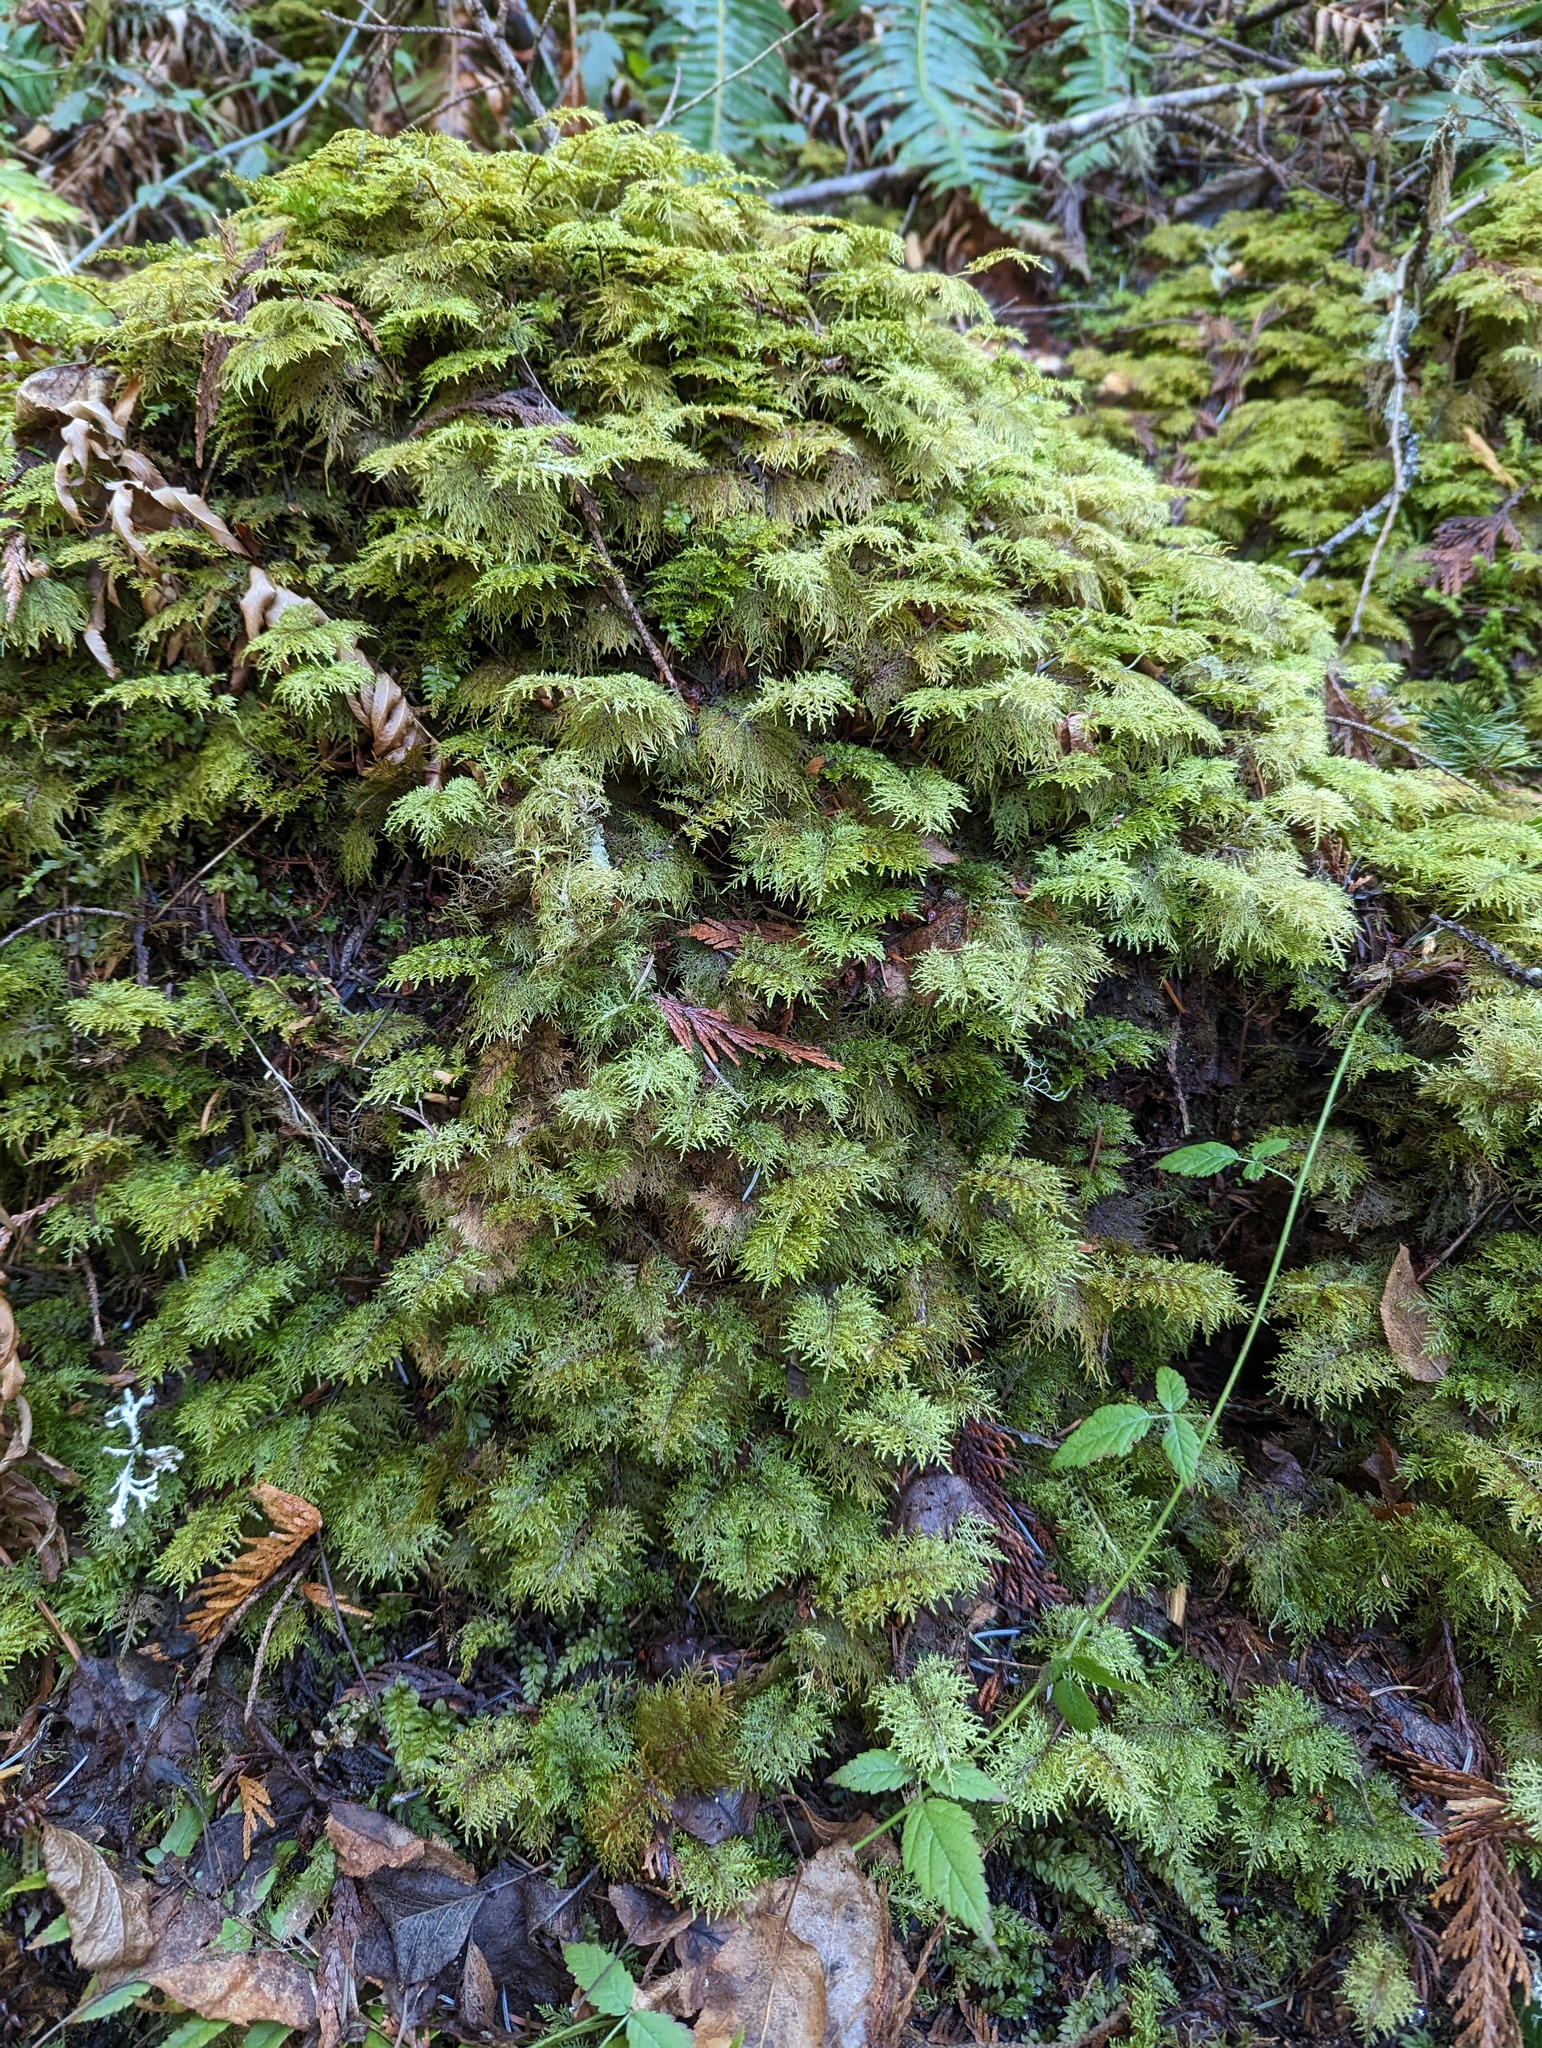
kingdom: Plantae
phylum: Bryophyta
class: Bryopsida
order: Hypnales
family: Hylocomiaceae
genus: Hylocomium
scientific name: Hylocomium splendens
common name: Stairstep moss
